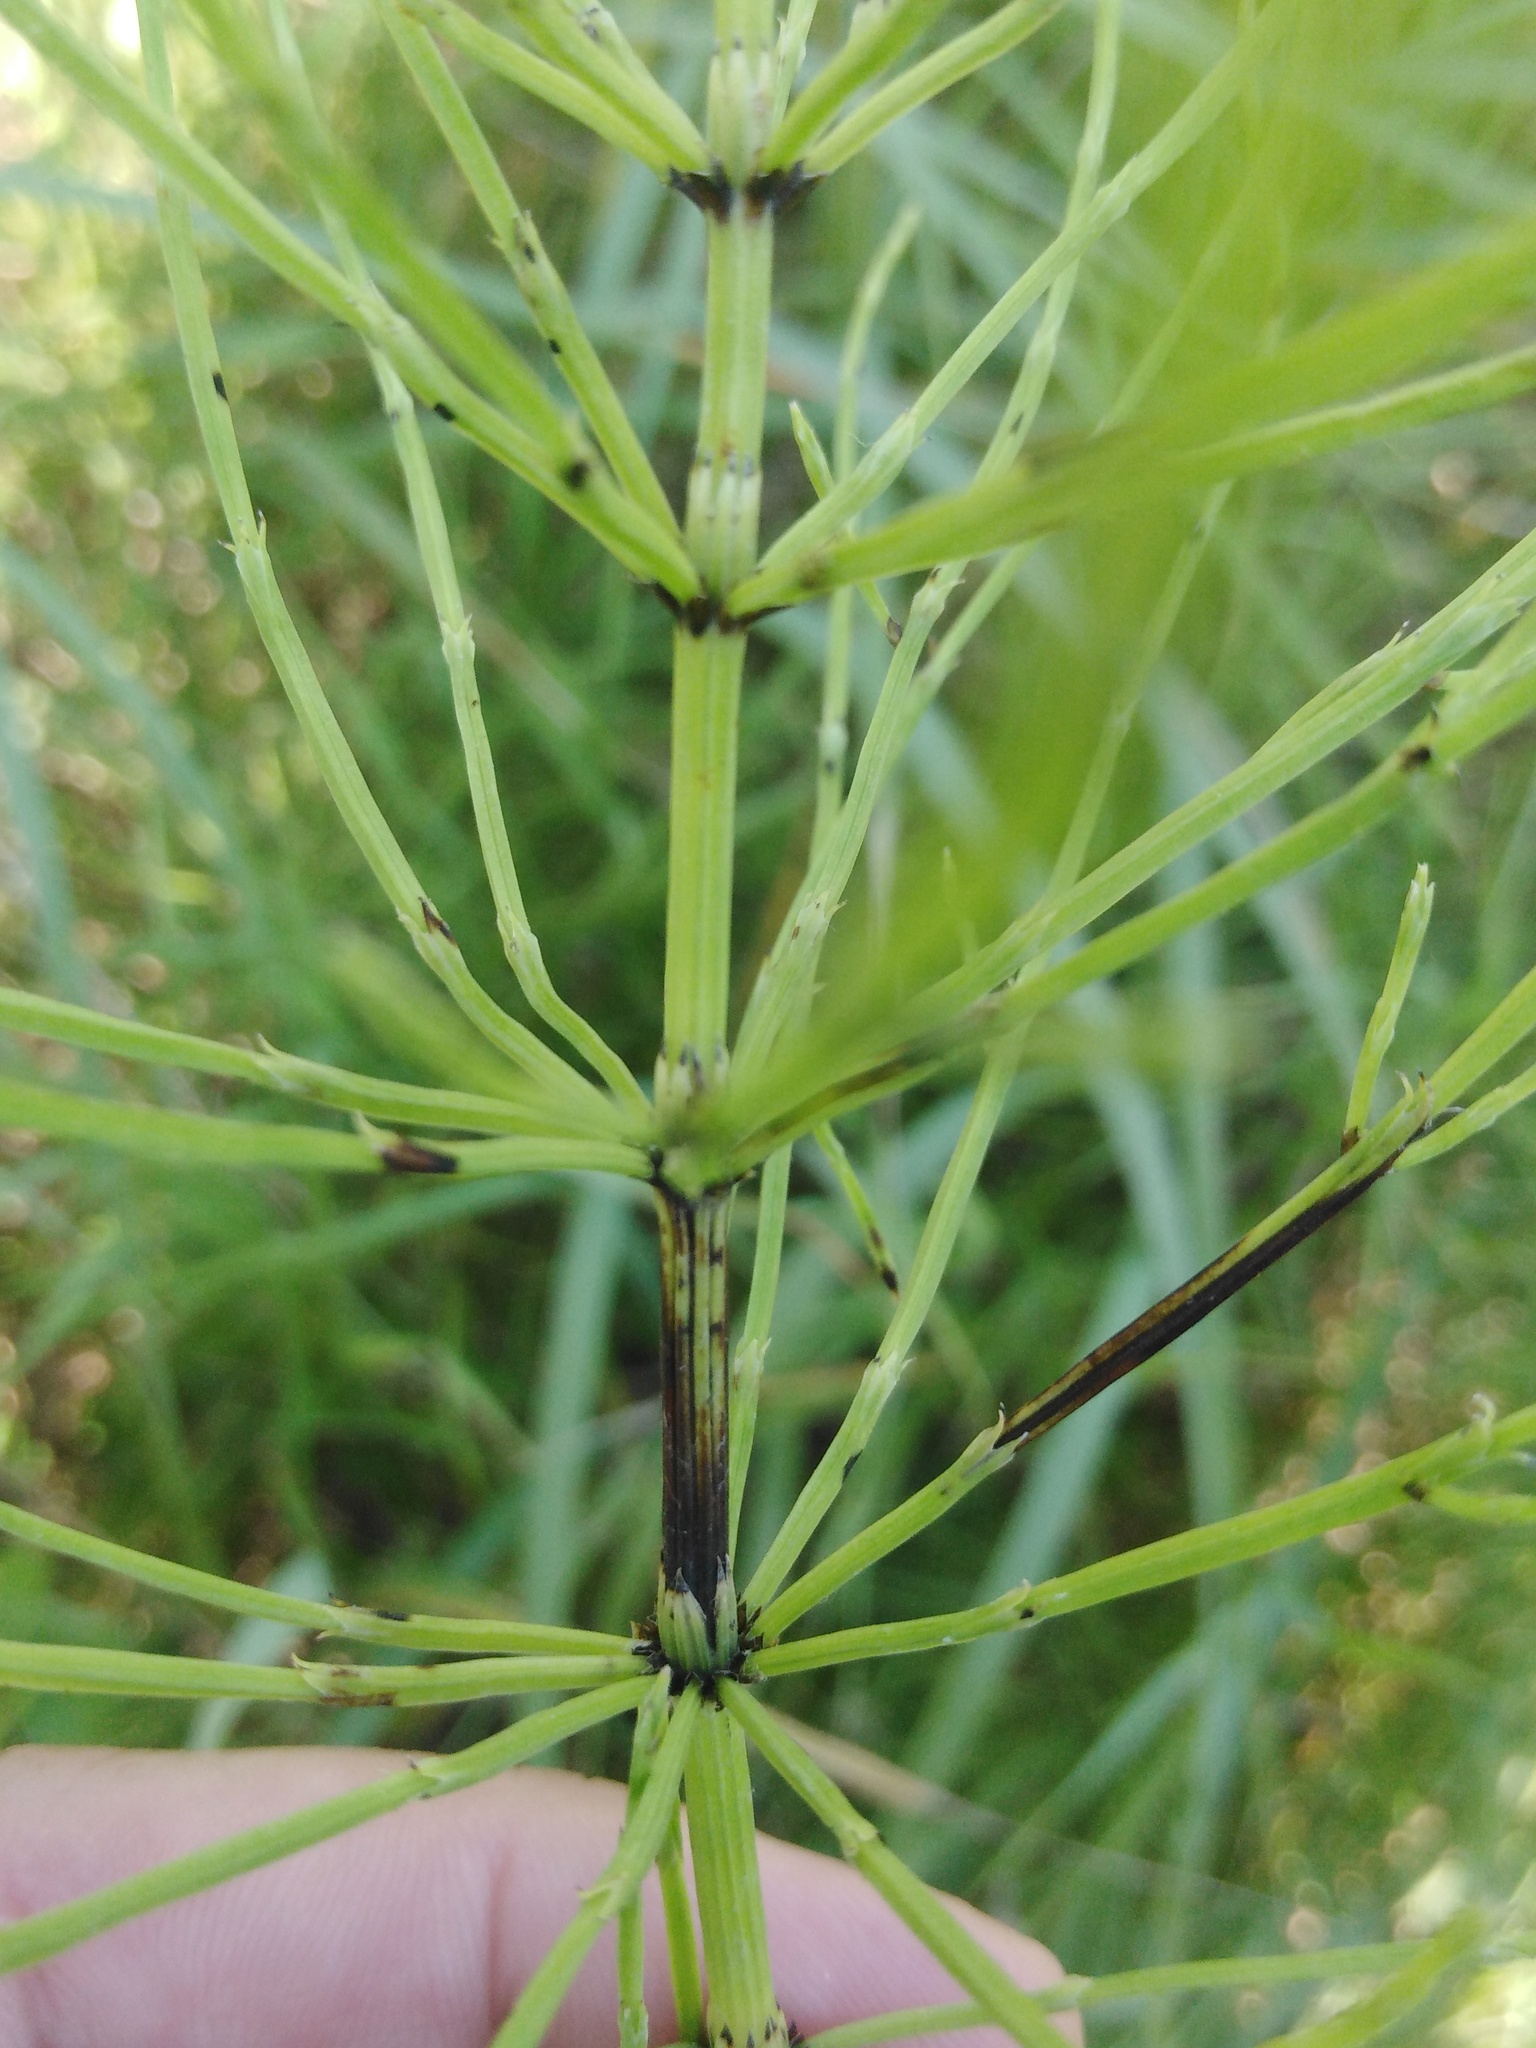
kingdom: Plantae
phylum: Tracheophyta
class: Polypodiopsida
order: Equisetales
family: Equisetaceae
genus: Equisetum
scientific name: Equisetum arvense
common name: Field horsetail
